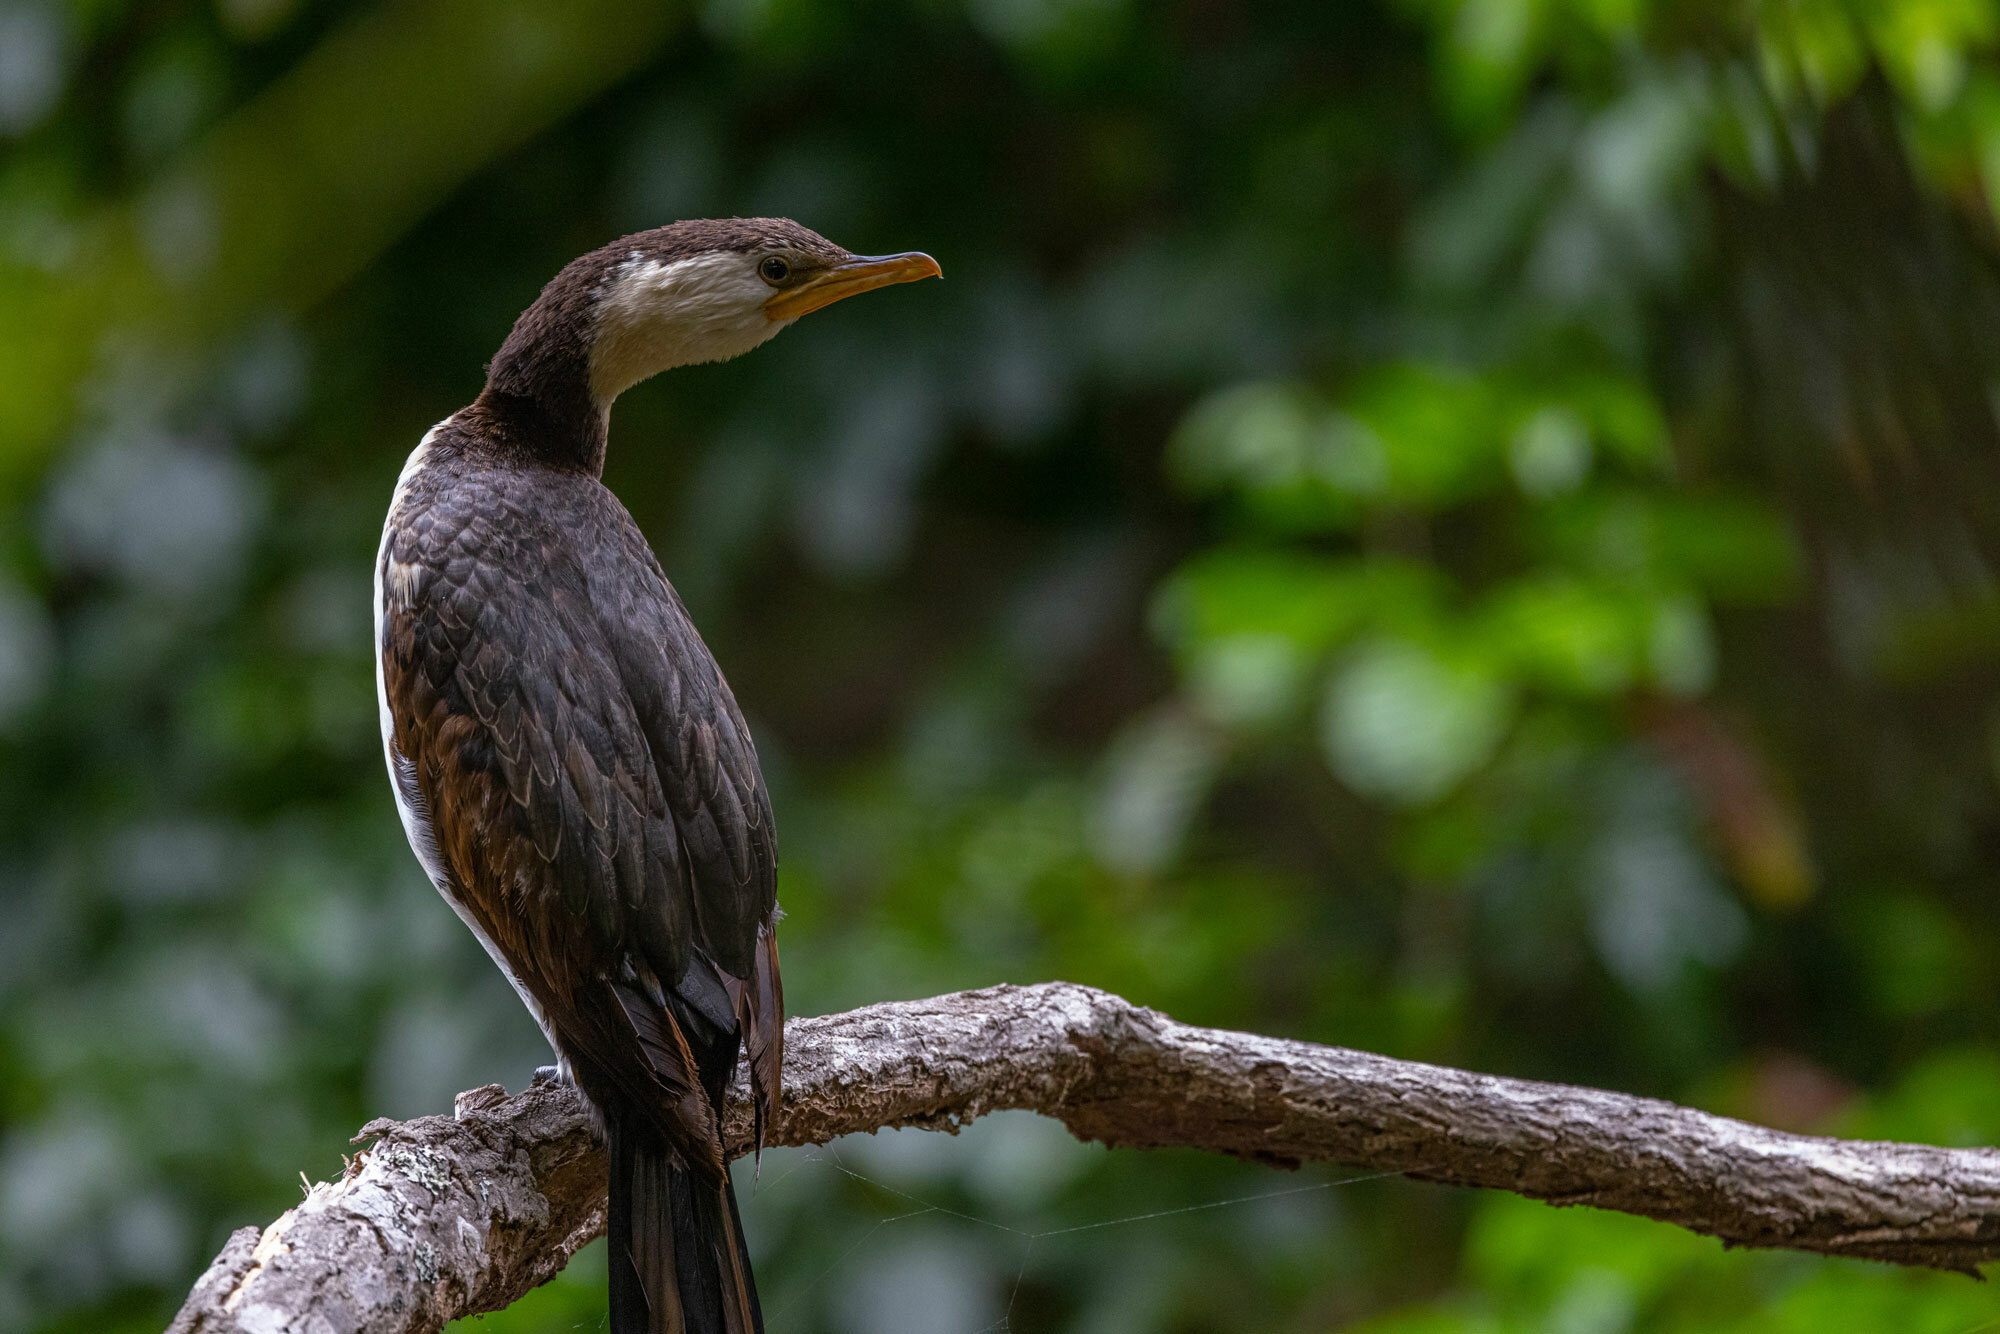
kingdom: Animalia
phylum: Chordata
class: Aves
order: Suliformes
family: Phalacrocoracidae
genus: Microcarbo
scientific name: Microcarbo melanoleucos
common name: Little pied cormorant
